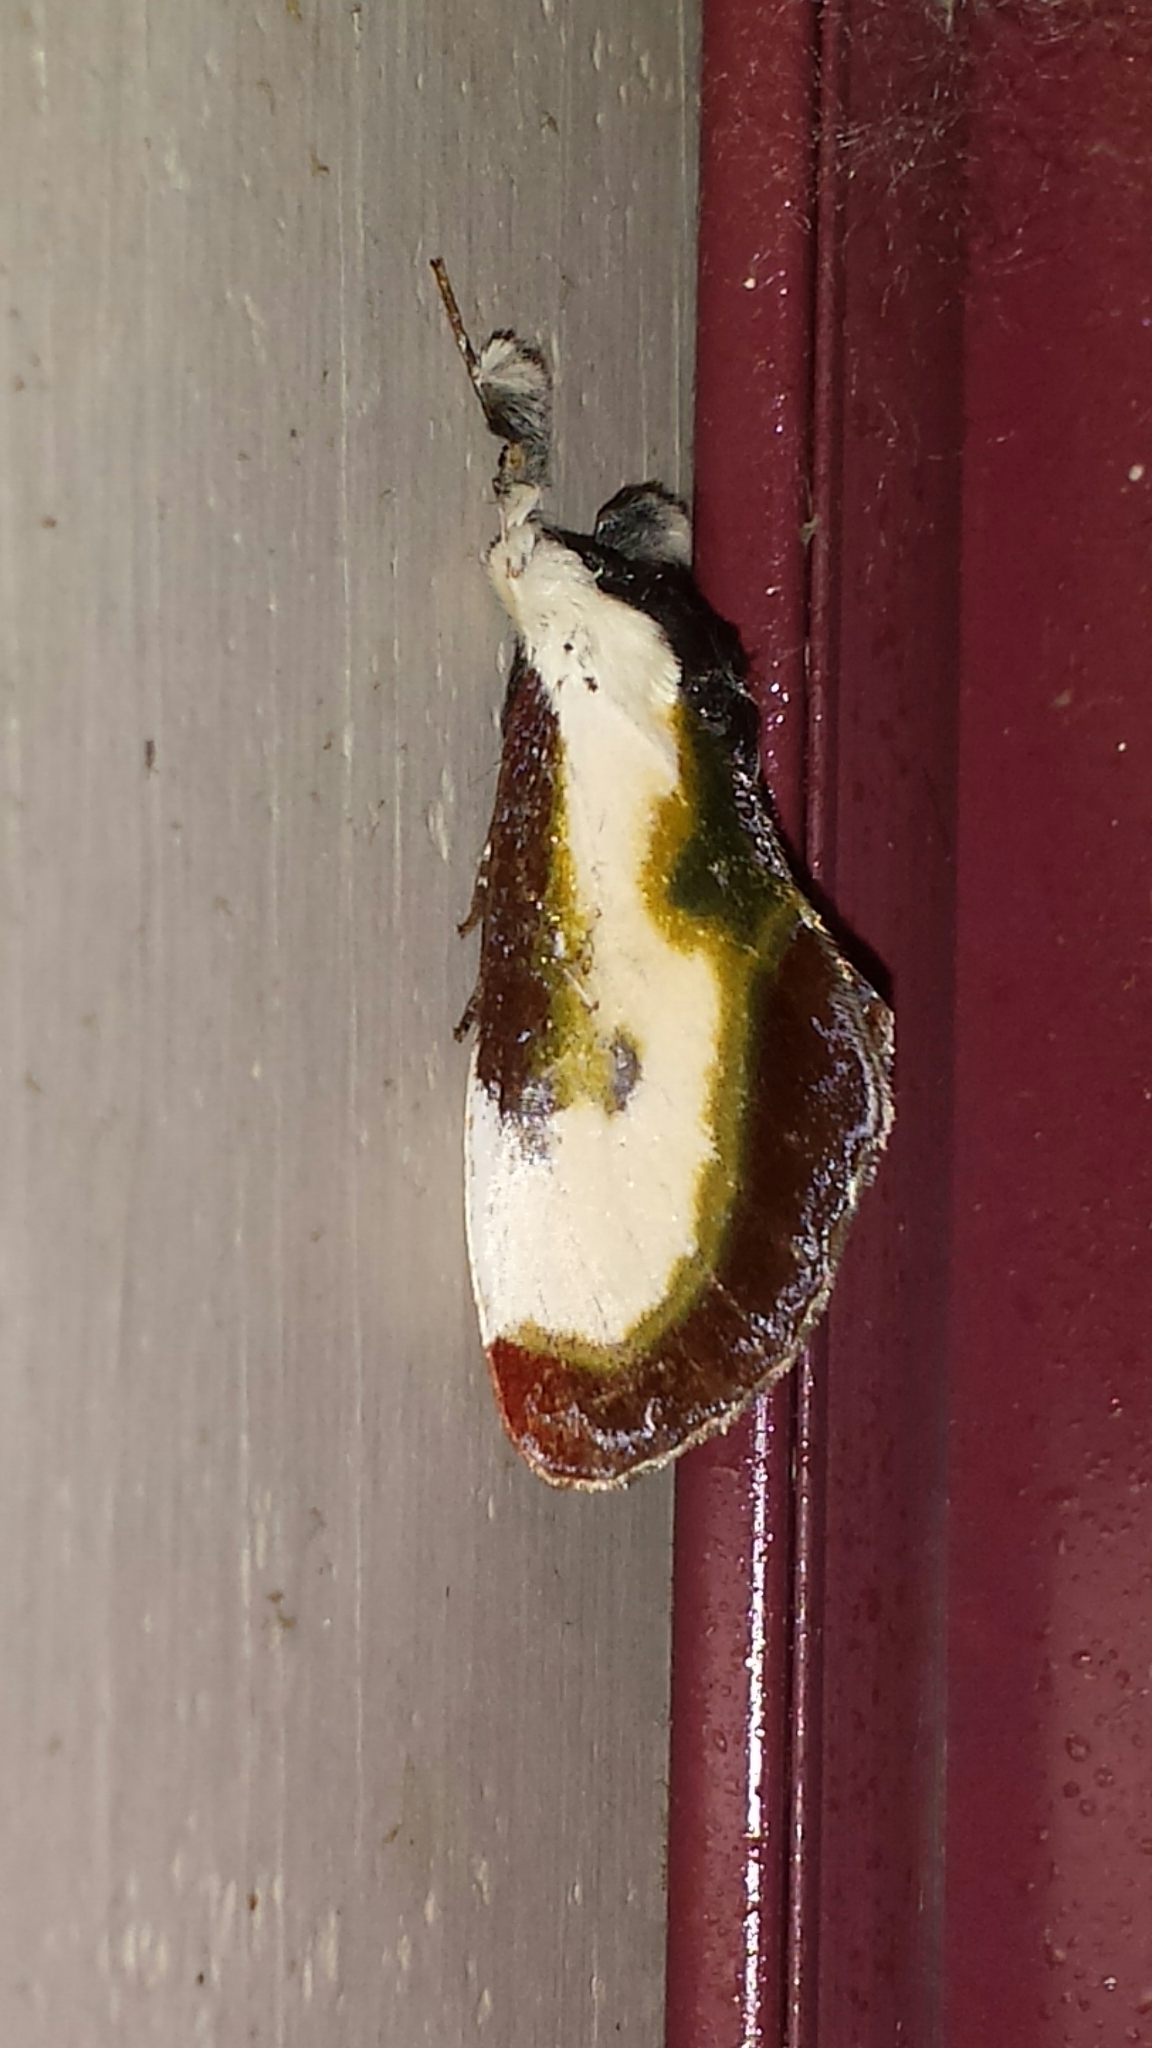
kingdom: Animalia
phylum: Arthropoda
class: Insecta
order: Lepidoptera
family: Noctuidae
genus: Eudryas
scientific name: Eudryas grata
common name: Beautiful wood-nymph
